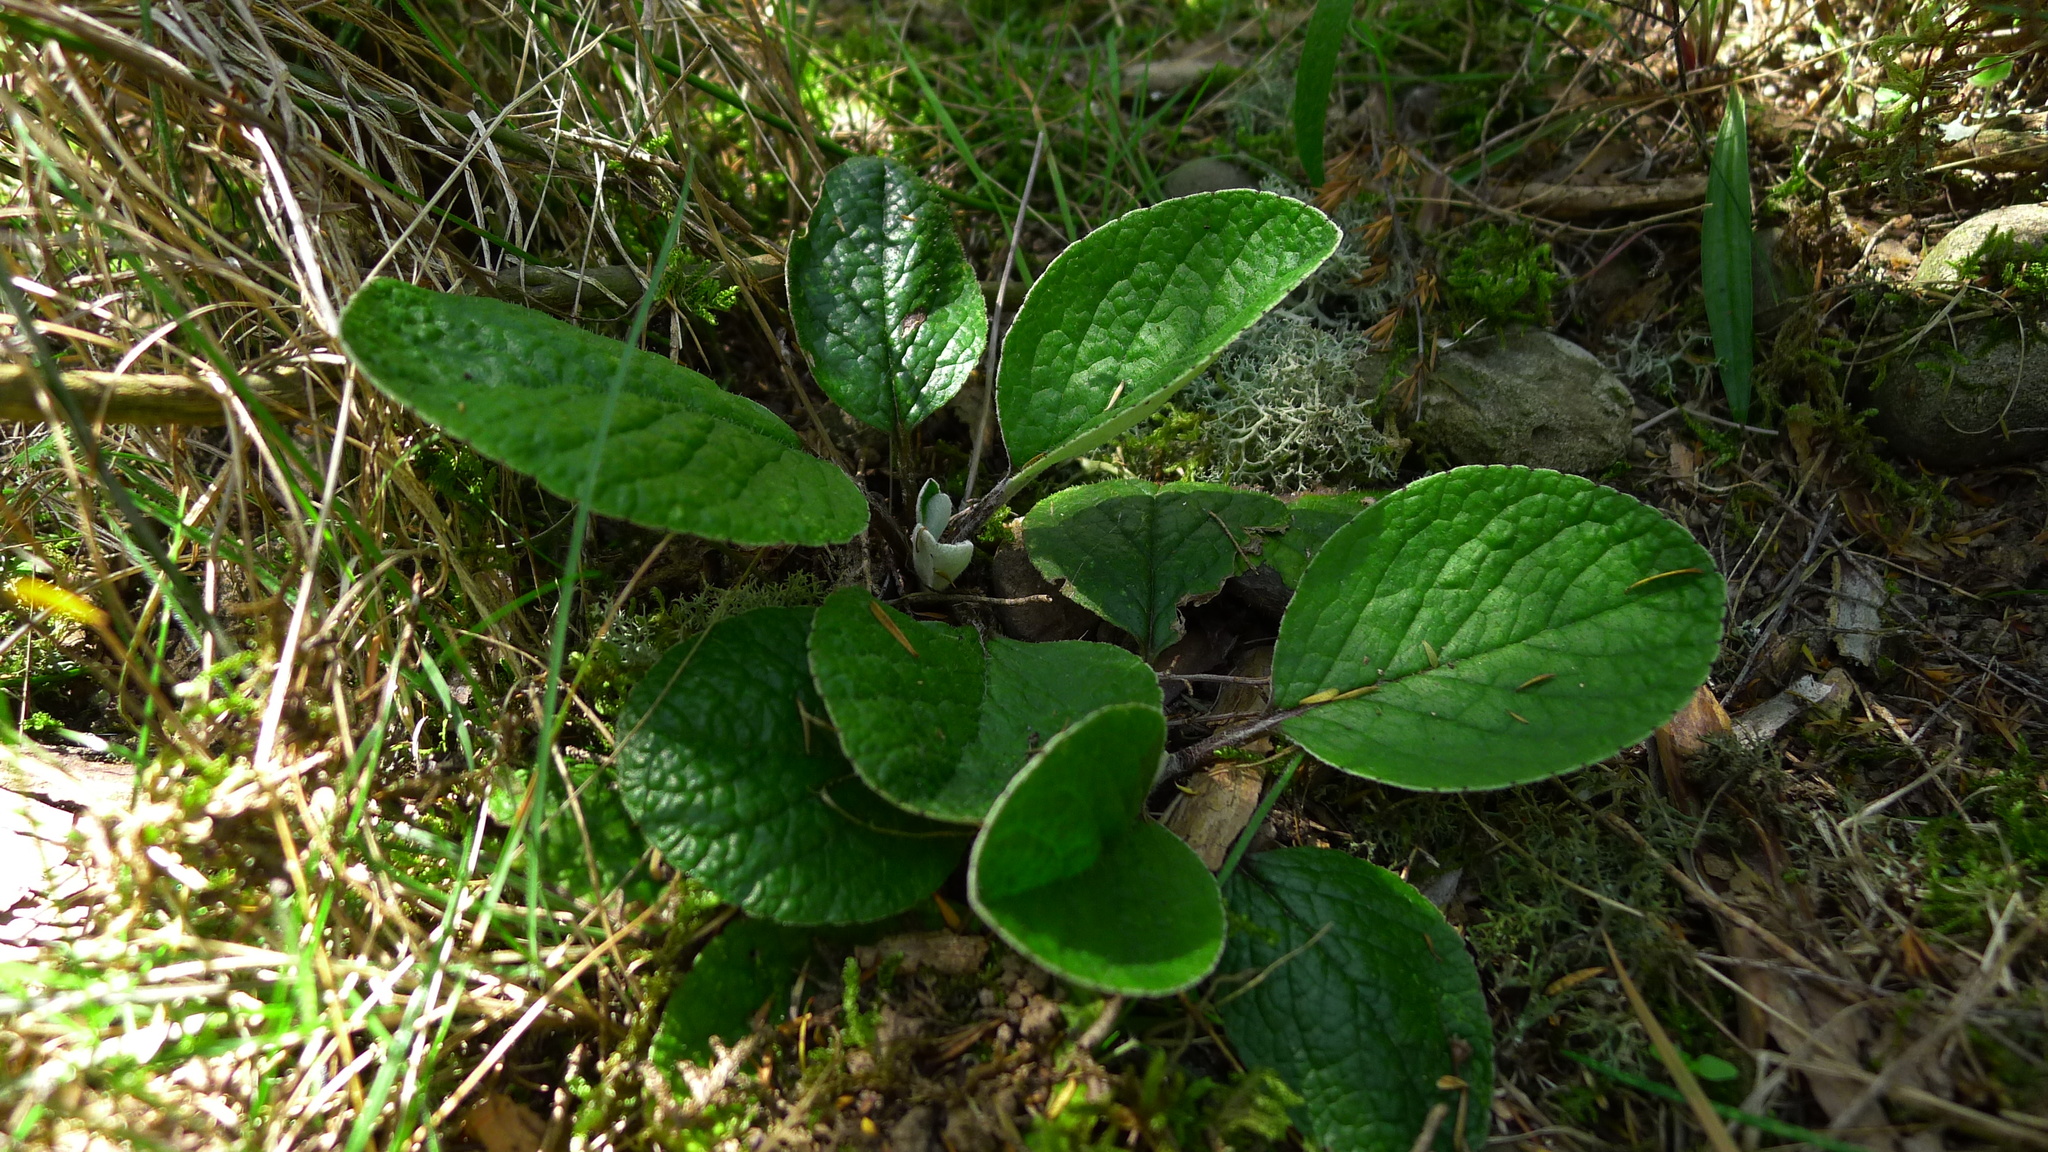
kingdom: Plantae
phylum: Tracheophyta
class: Magnoliopsida
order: Asterales
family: Asteraceae
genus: Brachyglottis
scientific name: Brachyglottis lagopus
